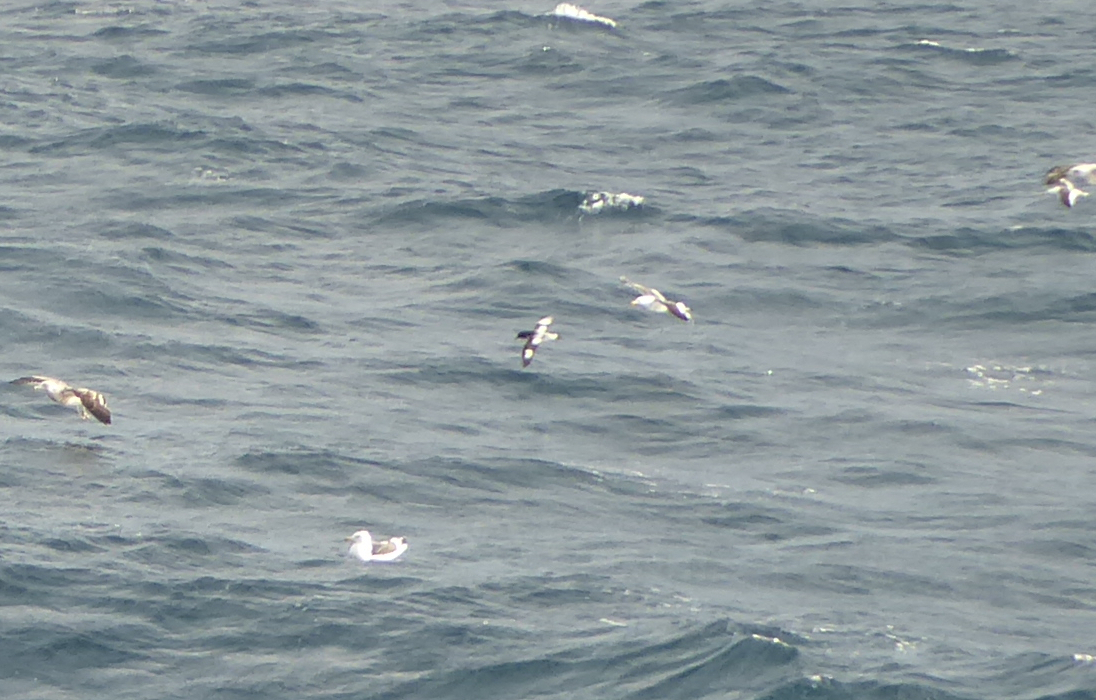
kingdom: Animalia
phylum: Chordata
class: Aves
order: Procellariiformes
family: Procellariidae
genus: Daption
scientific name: Daption capense
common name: Cape petrel
